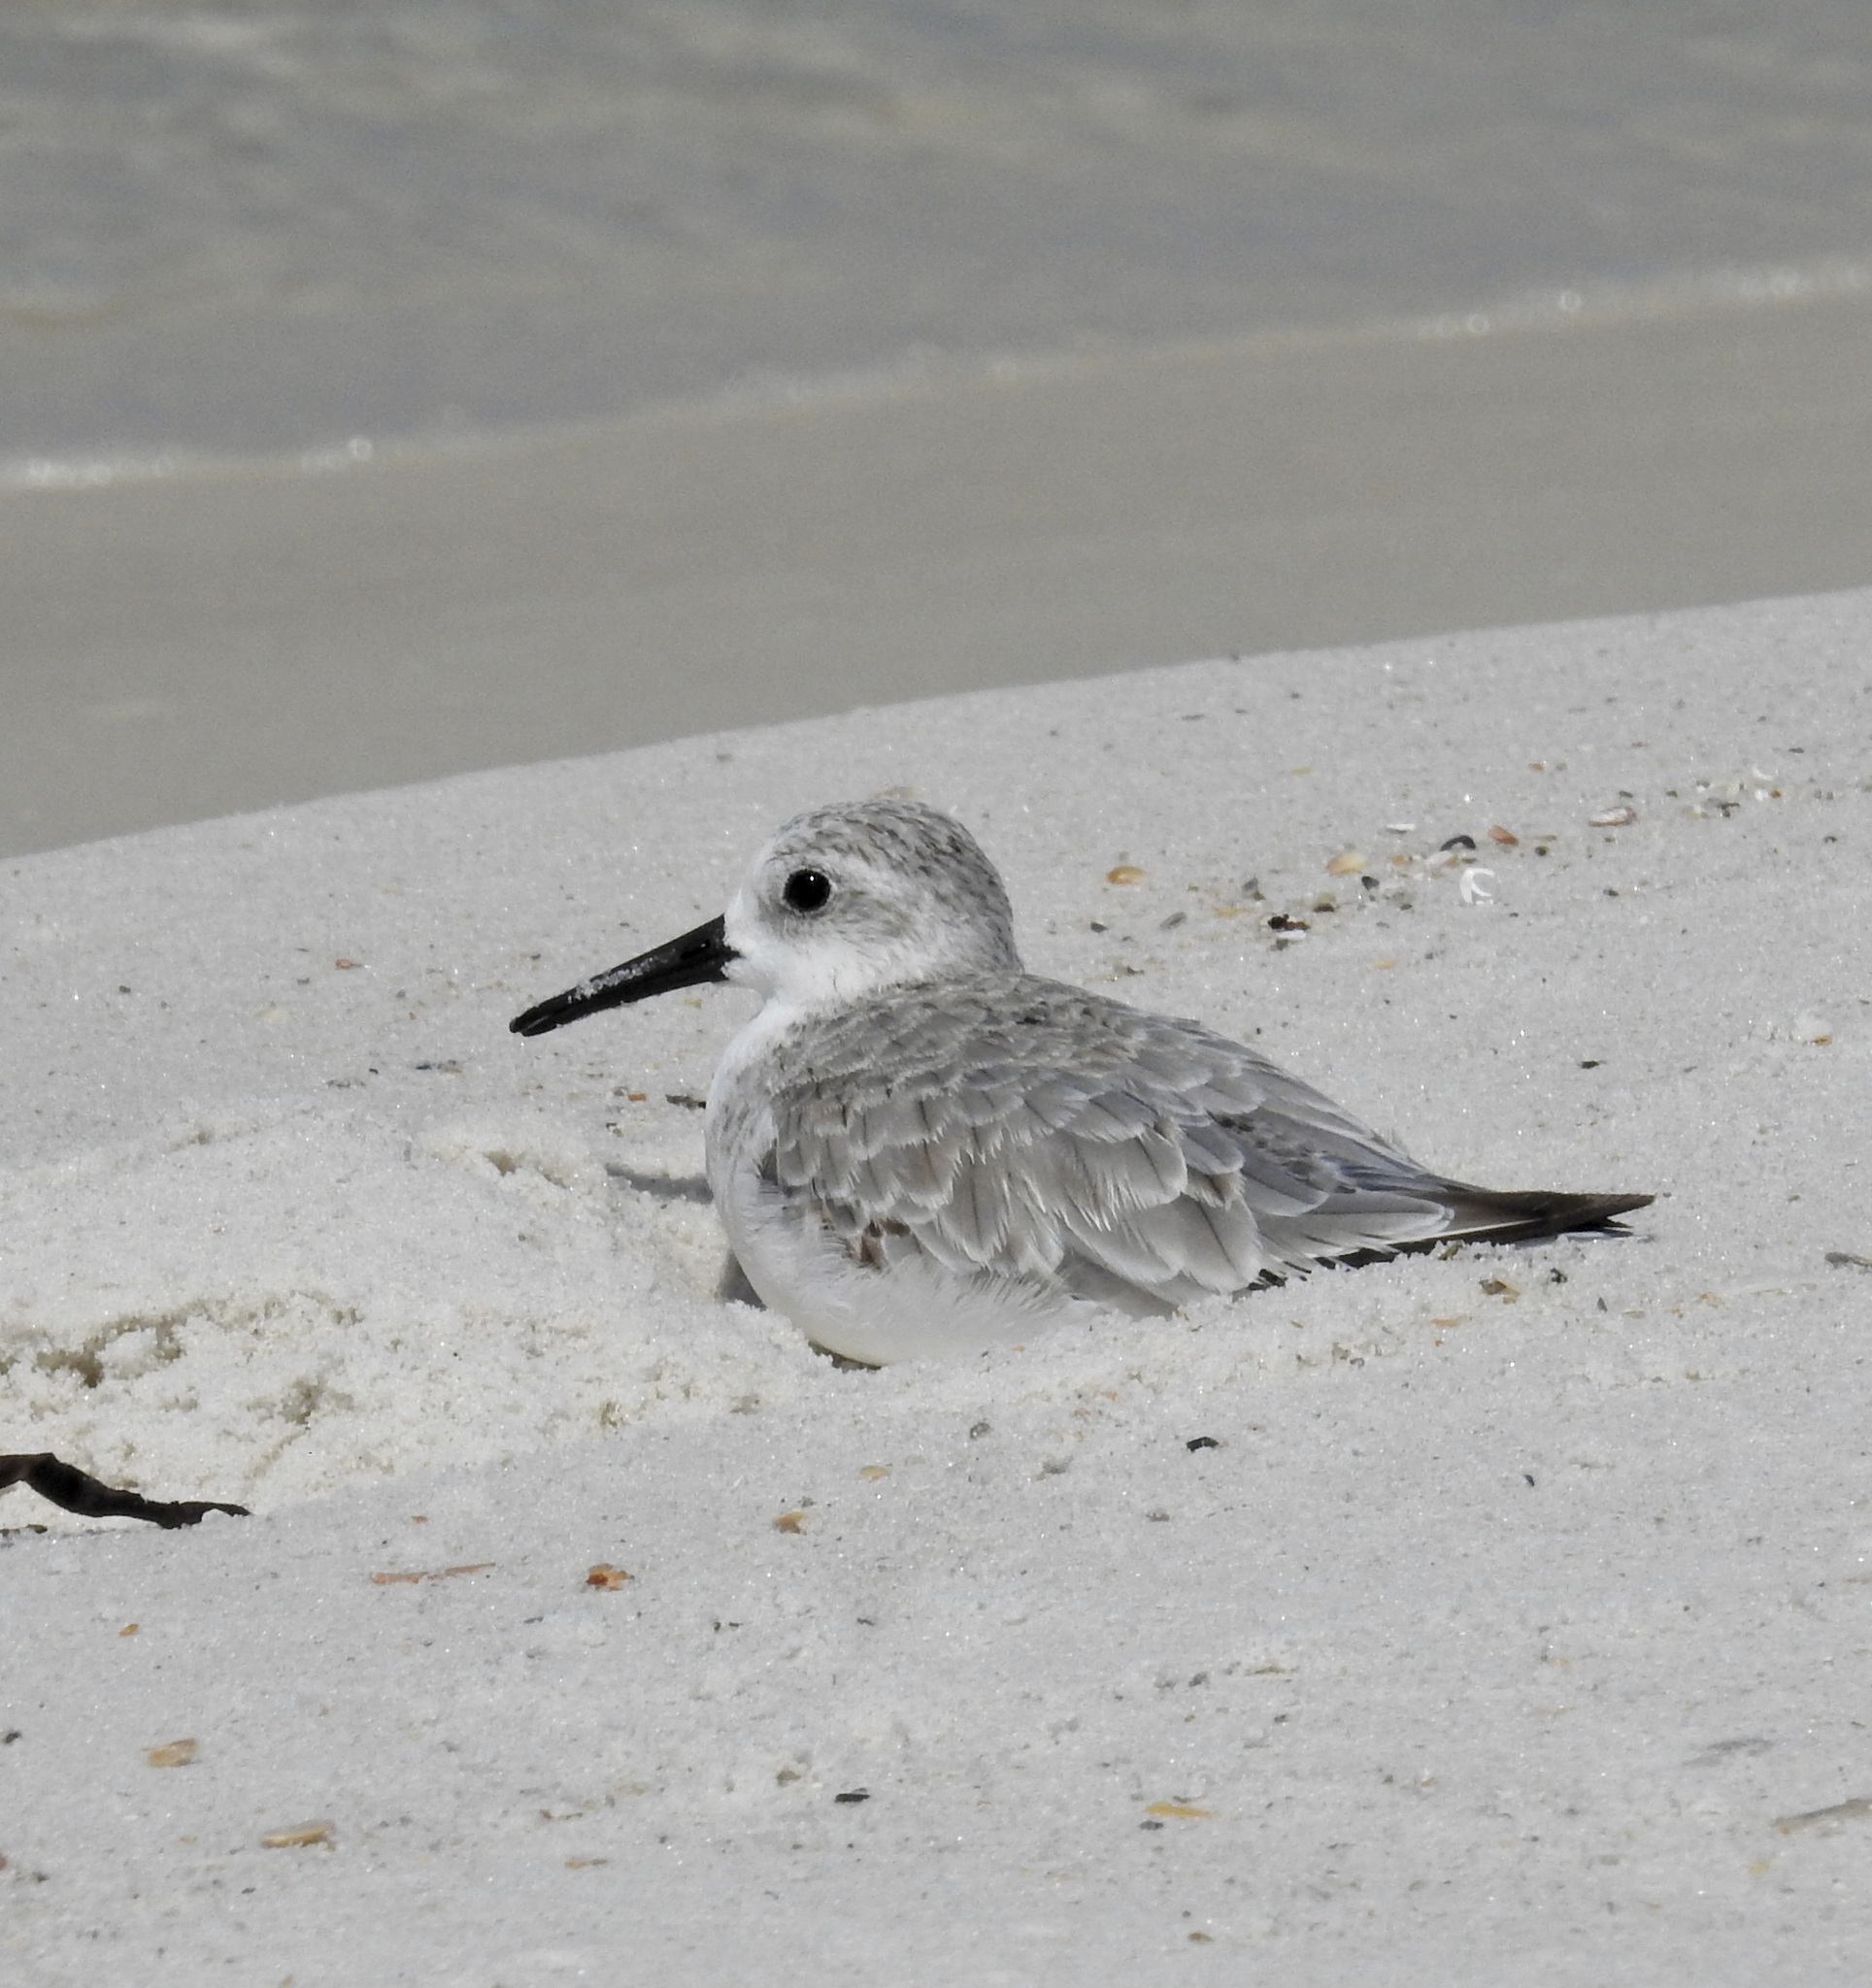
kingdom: Animalia
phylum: Chordata
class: Aves
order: Charadriiformes
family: Scolopacidae
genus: Calidris
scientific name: Calidris alba
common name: Sanderling
